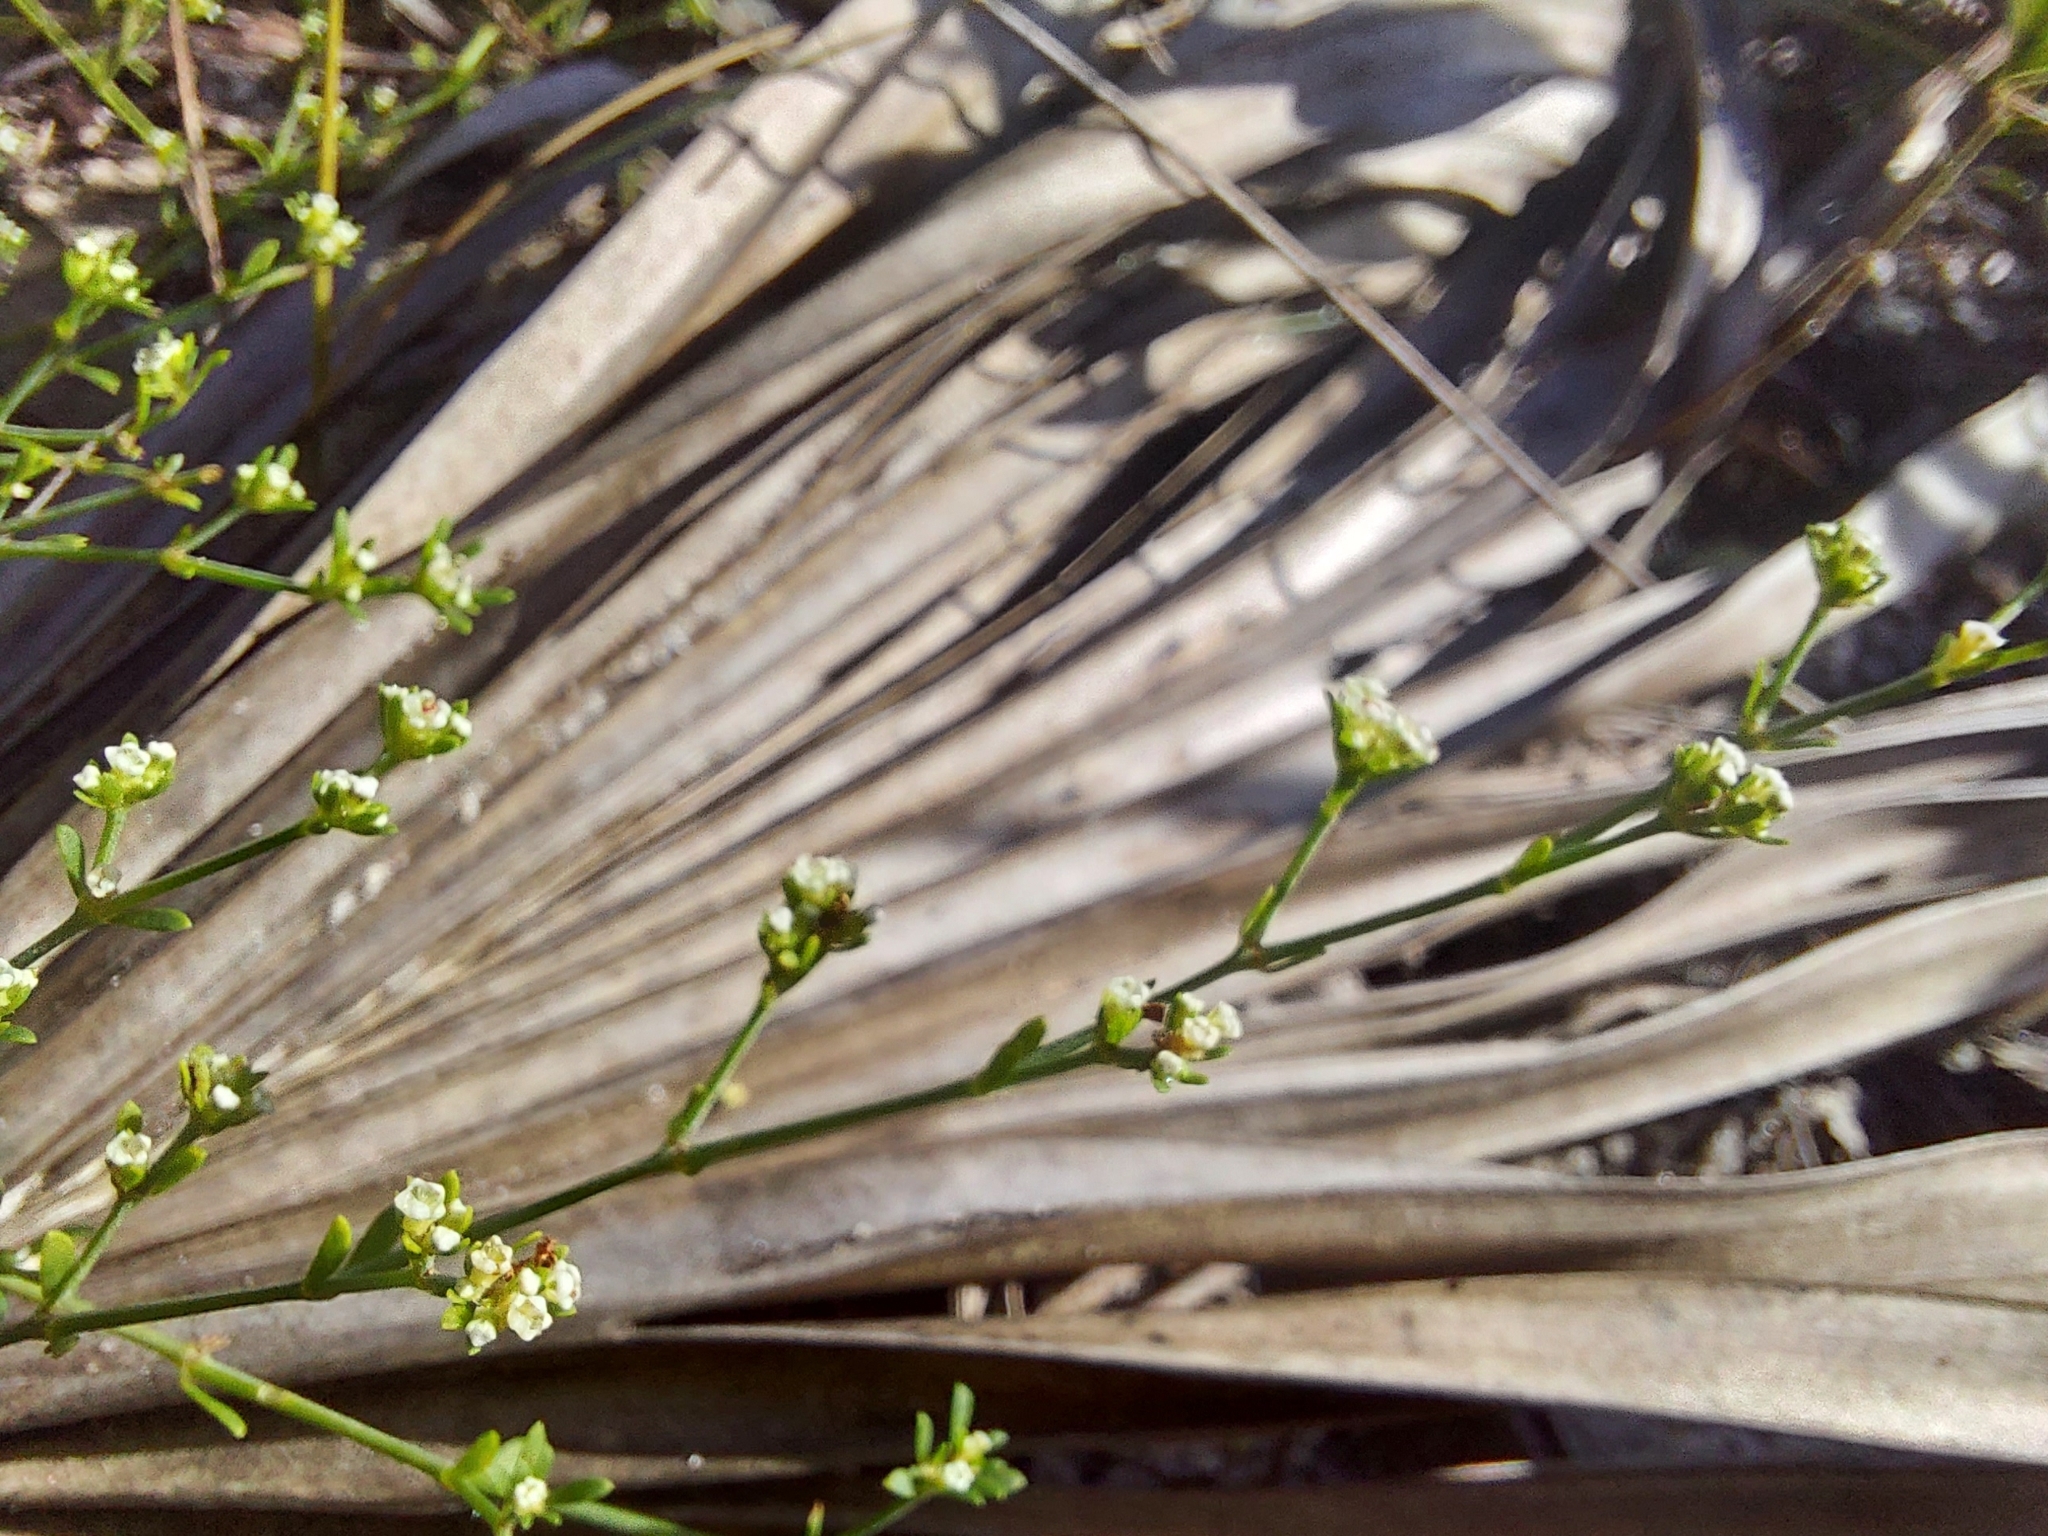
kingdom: Plantae
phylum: Tracheophyta
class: Magnoliopsida
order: Caryophyllales
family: Caryophyllaceae
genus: Paronychia
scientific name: Paronychia americana
